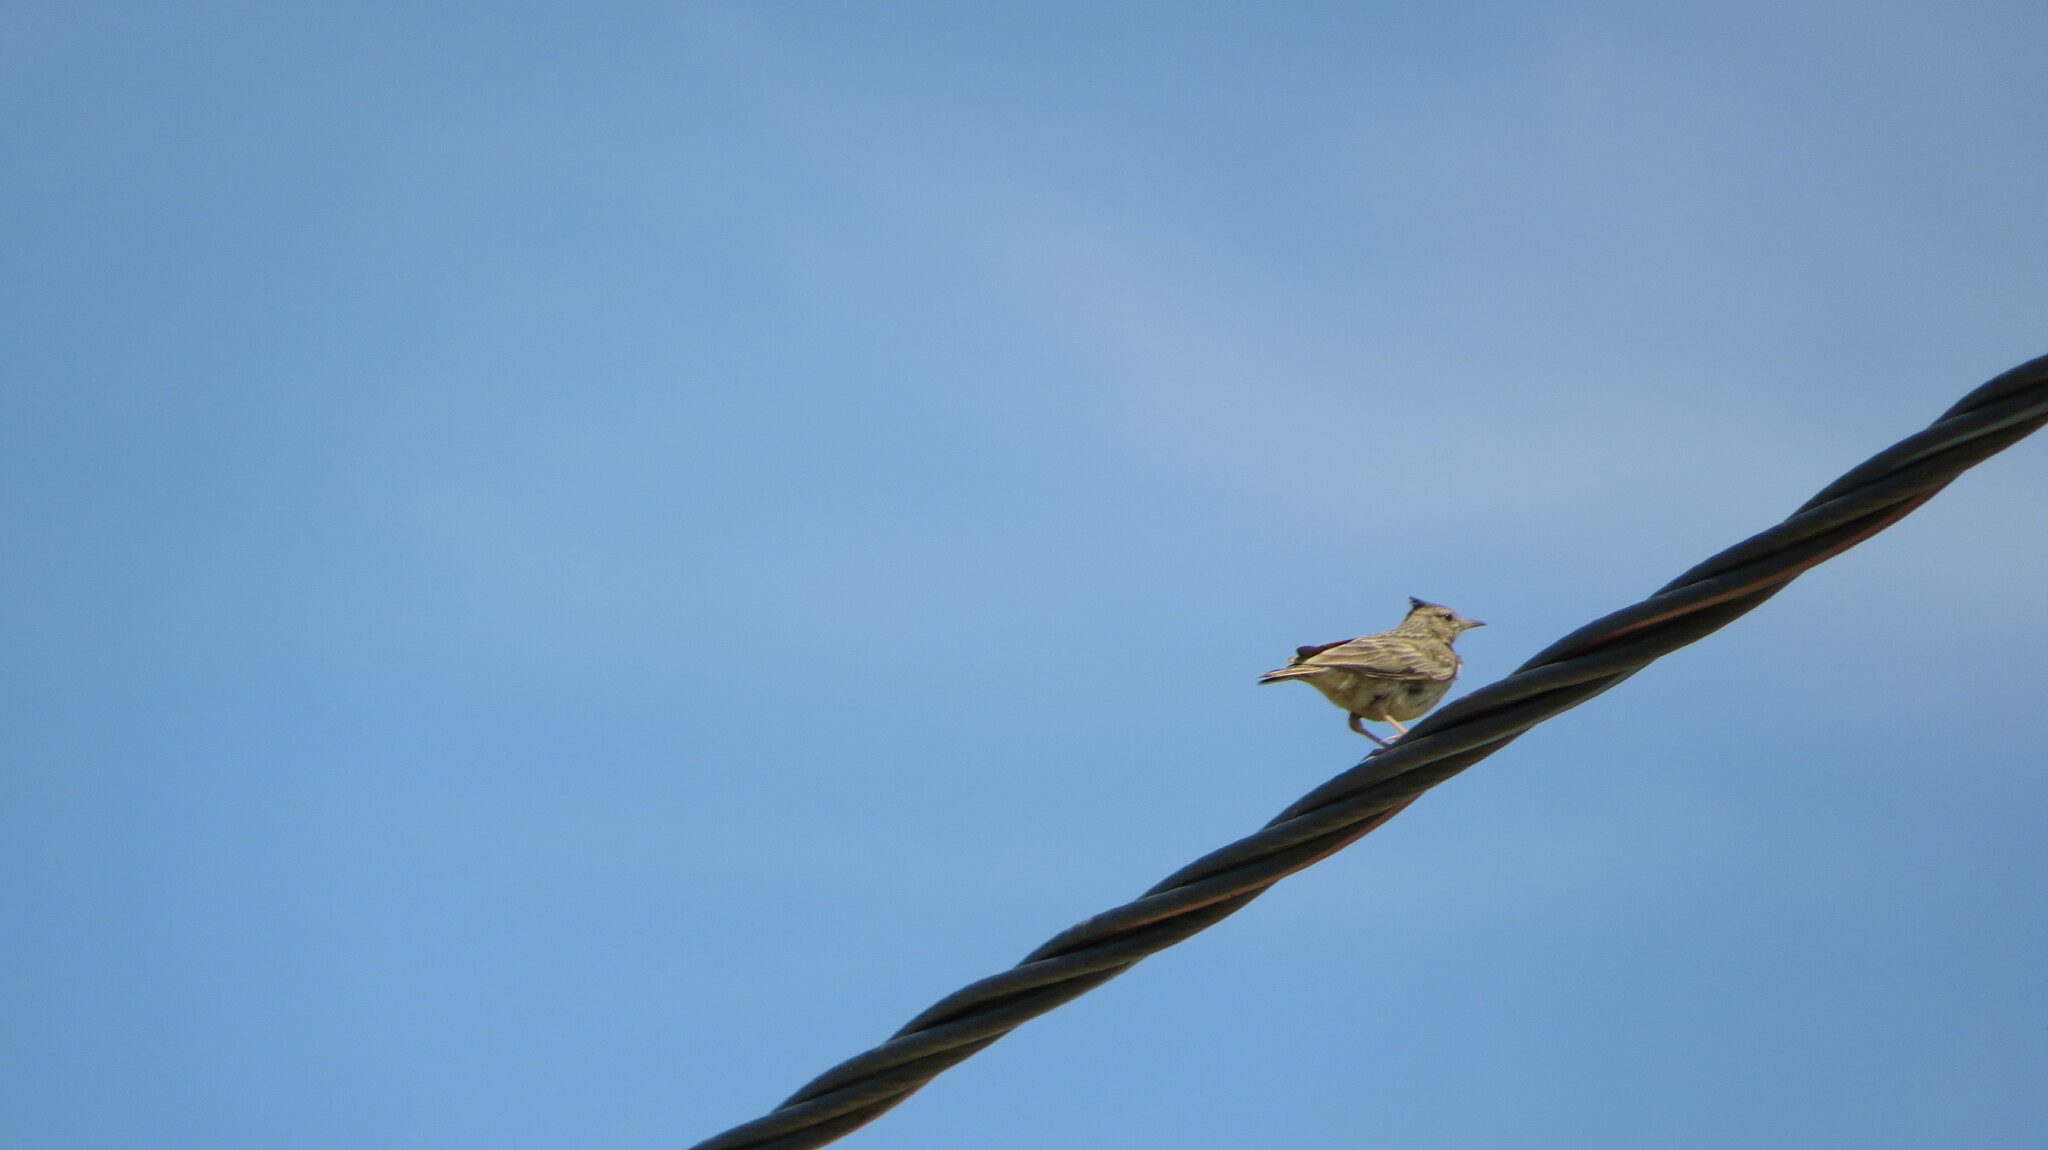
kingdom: Animalia
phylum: Chordata
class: Aves
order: Passeriformes
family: Alaudidae
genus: Galerida
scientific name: Galerida cristata
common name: Crested lark
